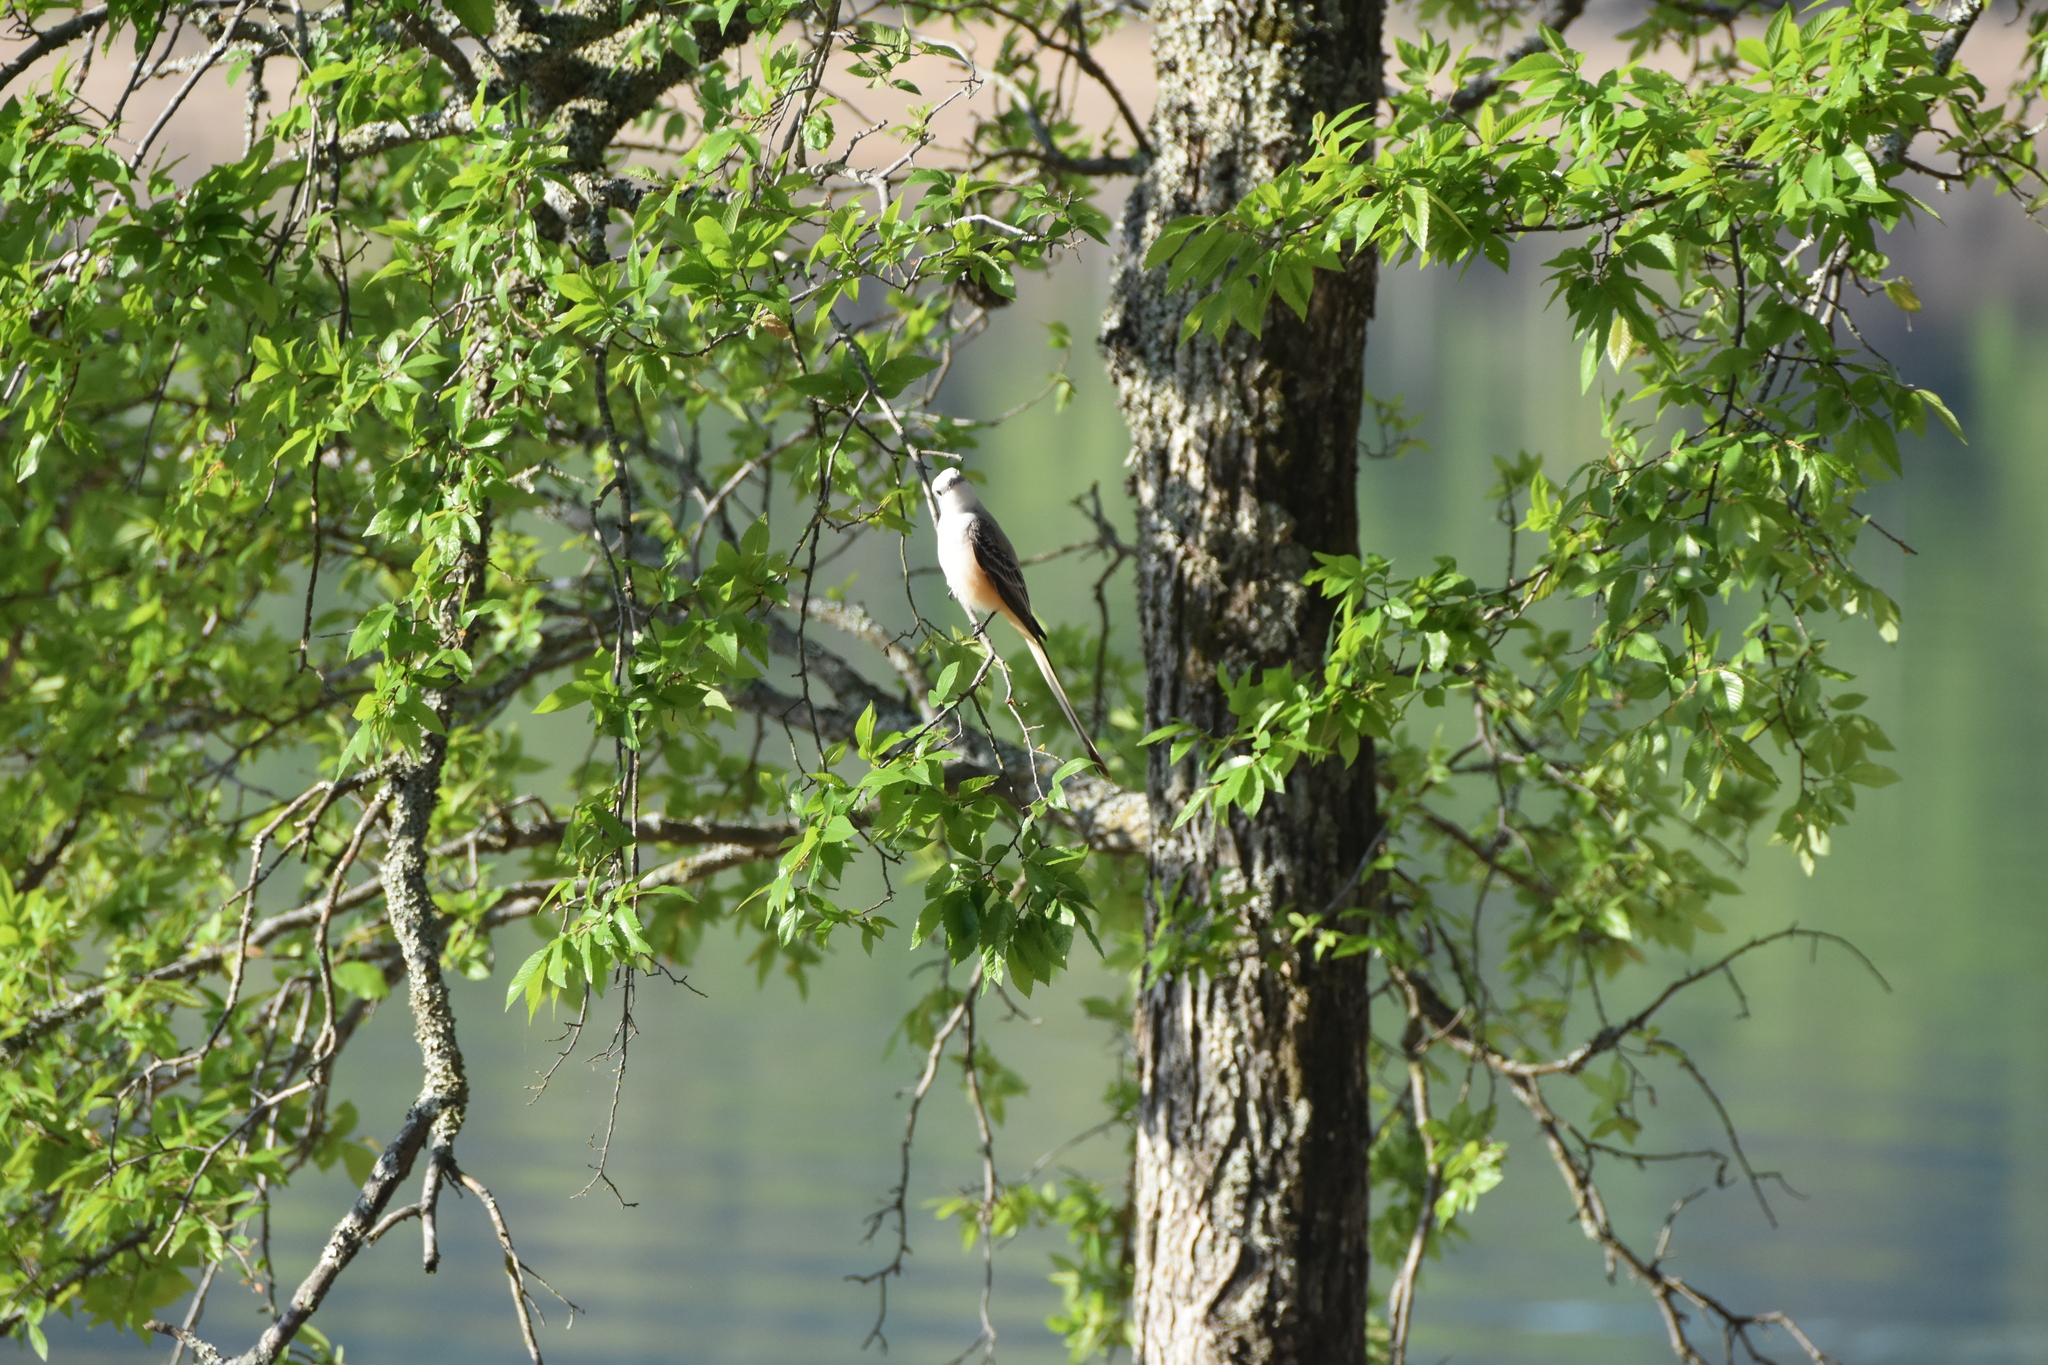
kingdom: Animalia
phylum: Chordata
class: Aves
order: Passeriformes
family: Tyrannidae
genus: Tyrannus
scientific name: Tyrannus forficatus
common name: Scissor-tailed flycatcher
